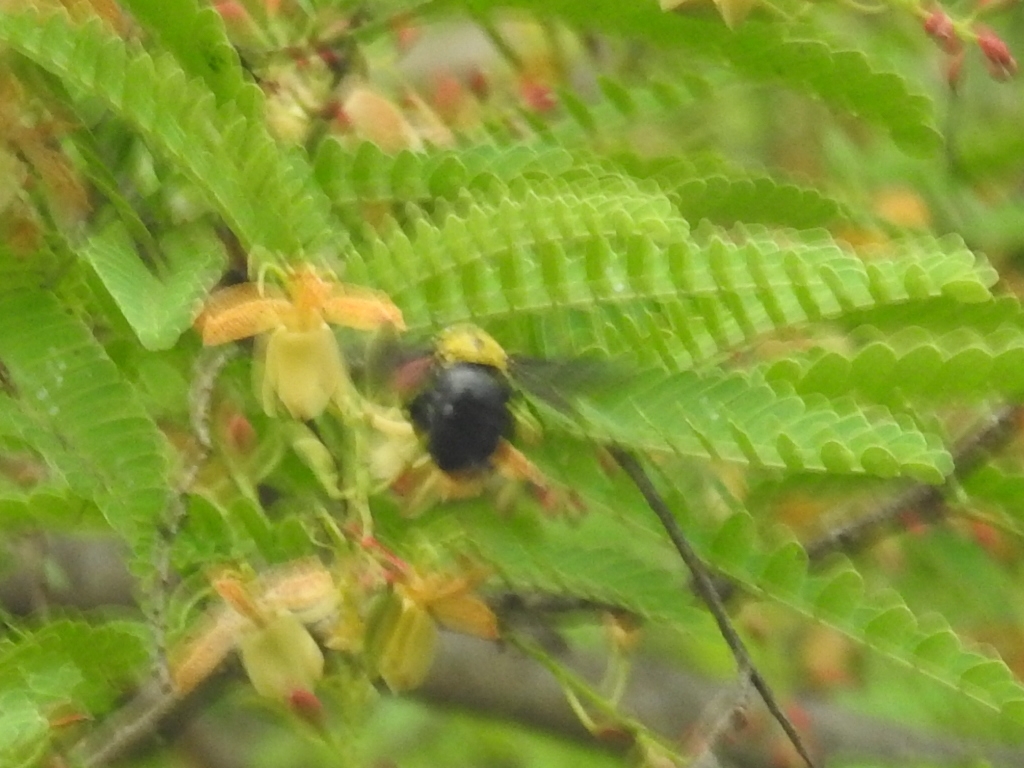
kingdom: Animalia
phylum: Arthropoda
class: Insecta
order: Hymenoptera
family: Apidae
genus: Xylocopa
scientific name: Xylocopa ocularis
